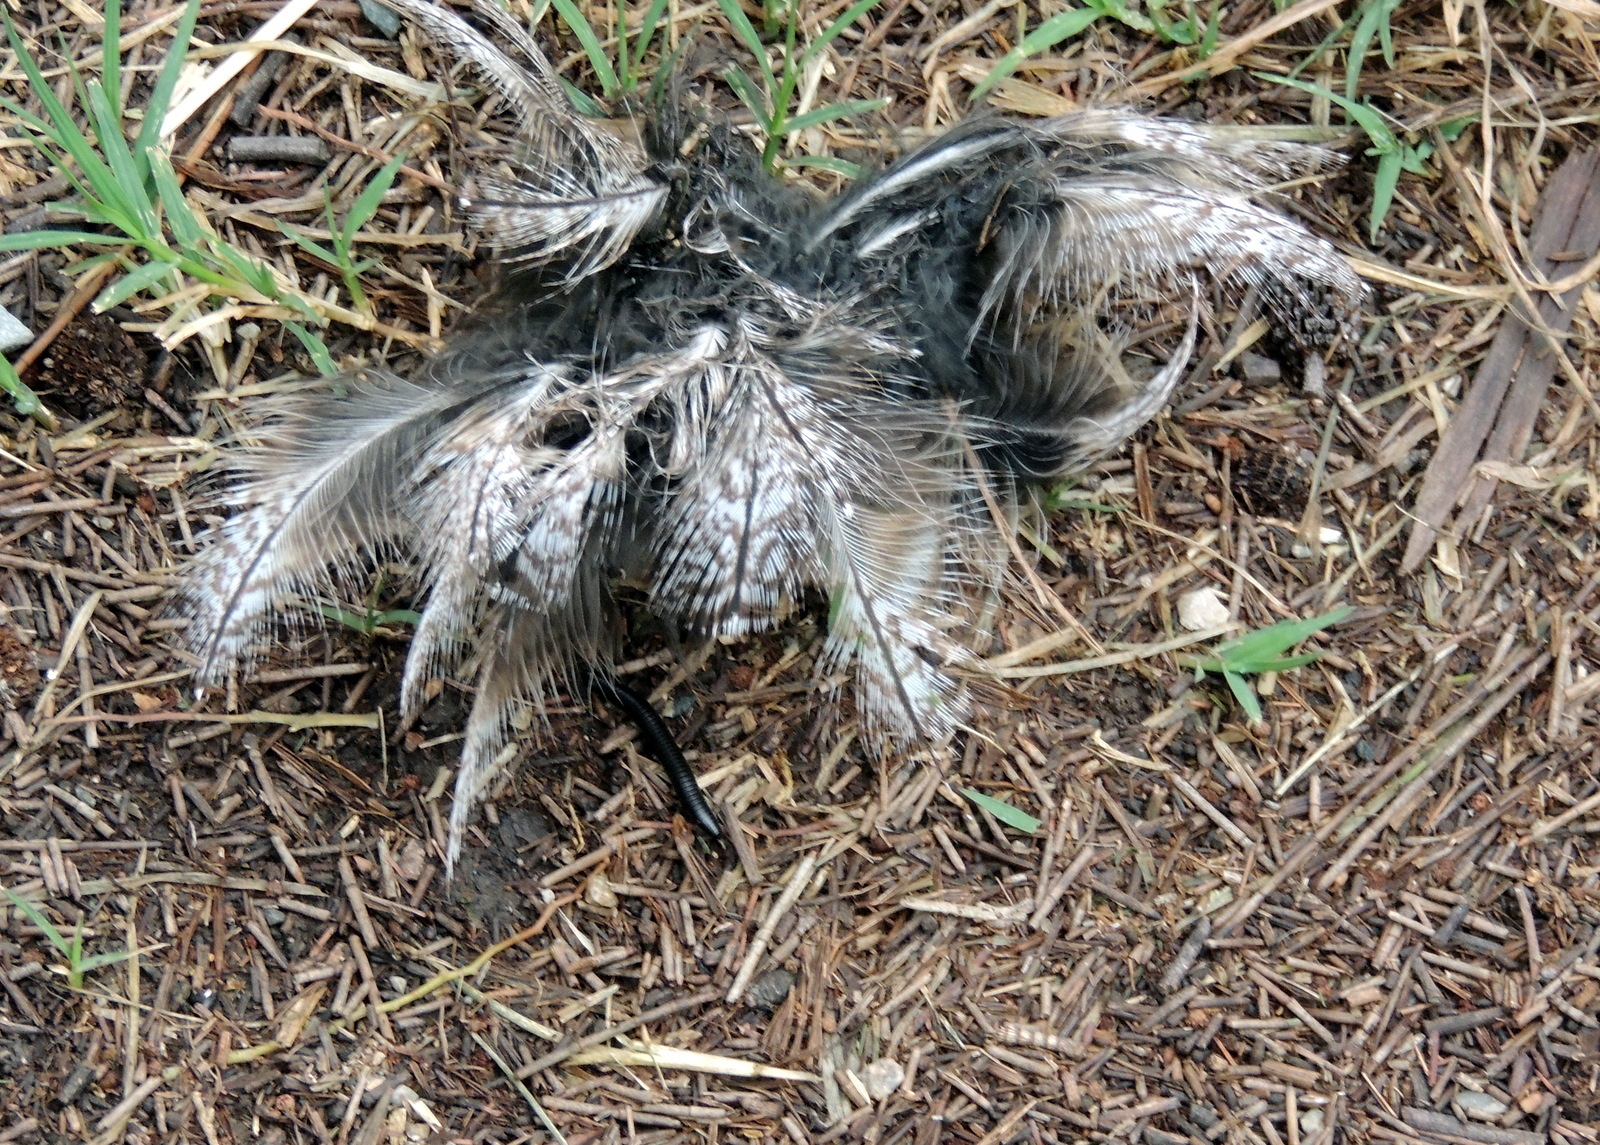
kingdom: Animalia
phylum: Chordata
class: Aves
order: Caprimulgiformes
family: Podargidae
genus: Podargus
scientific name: Podargus strigoides
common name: Tawny frogmouth
